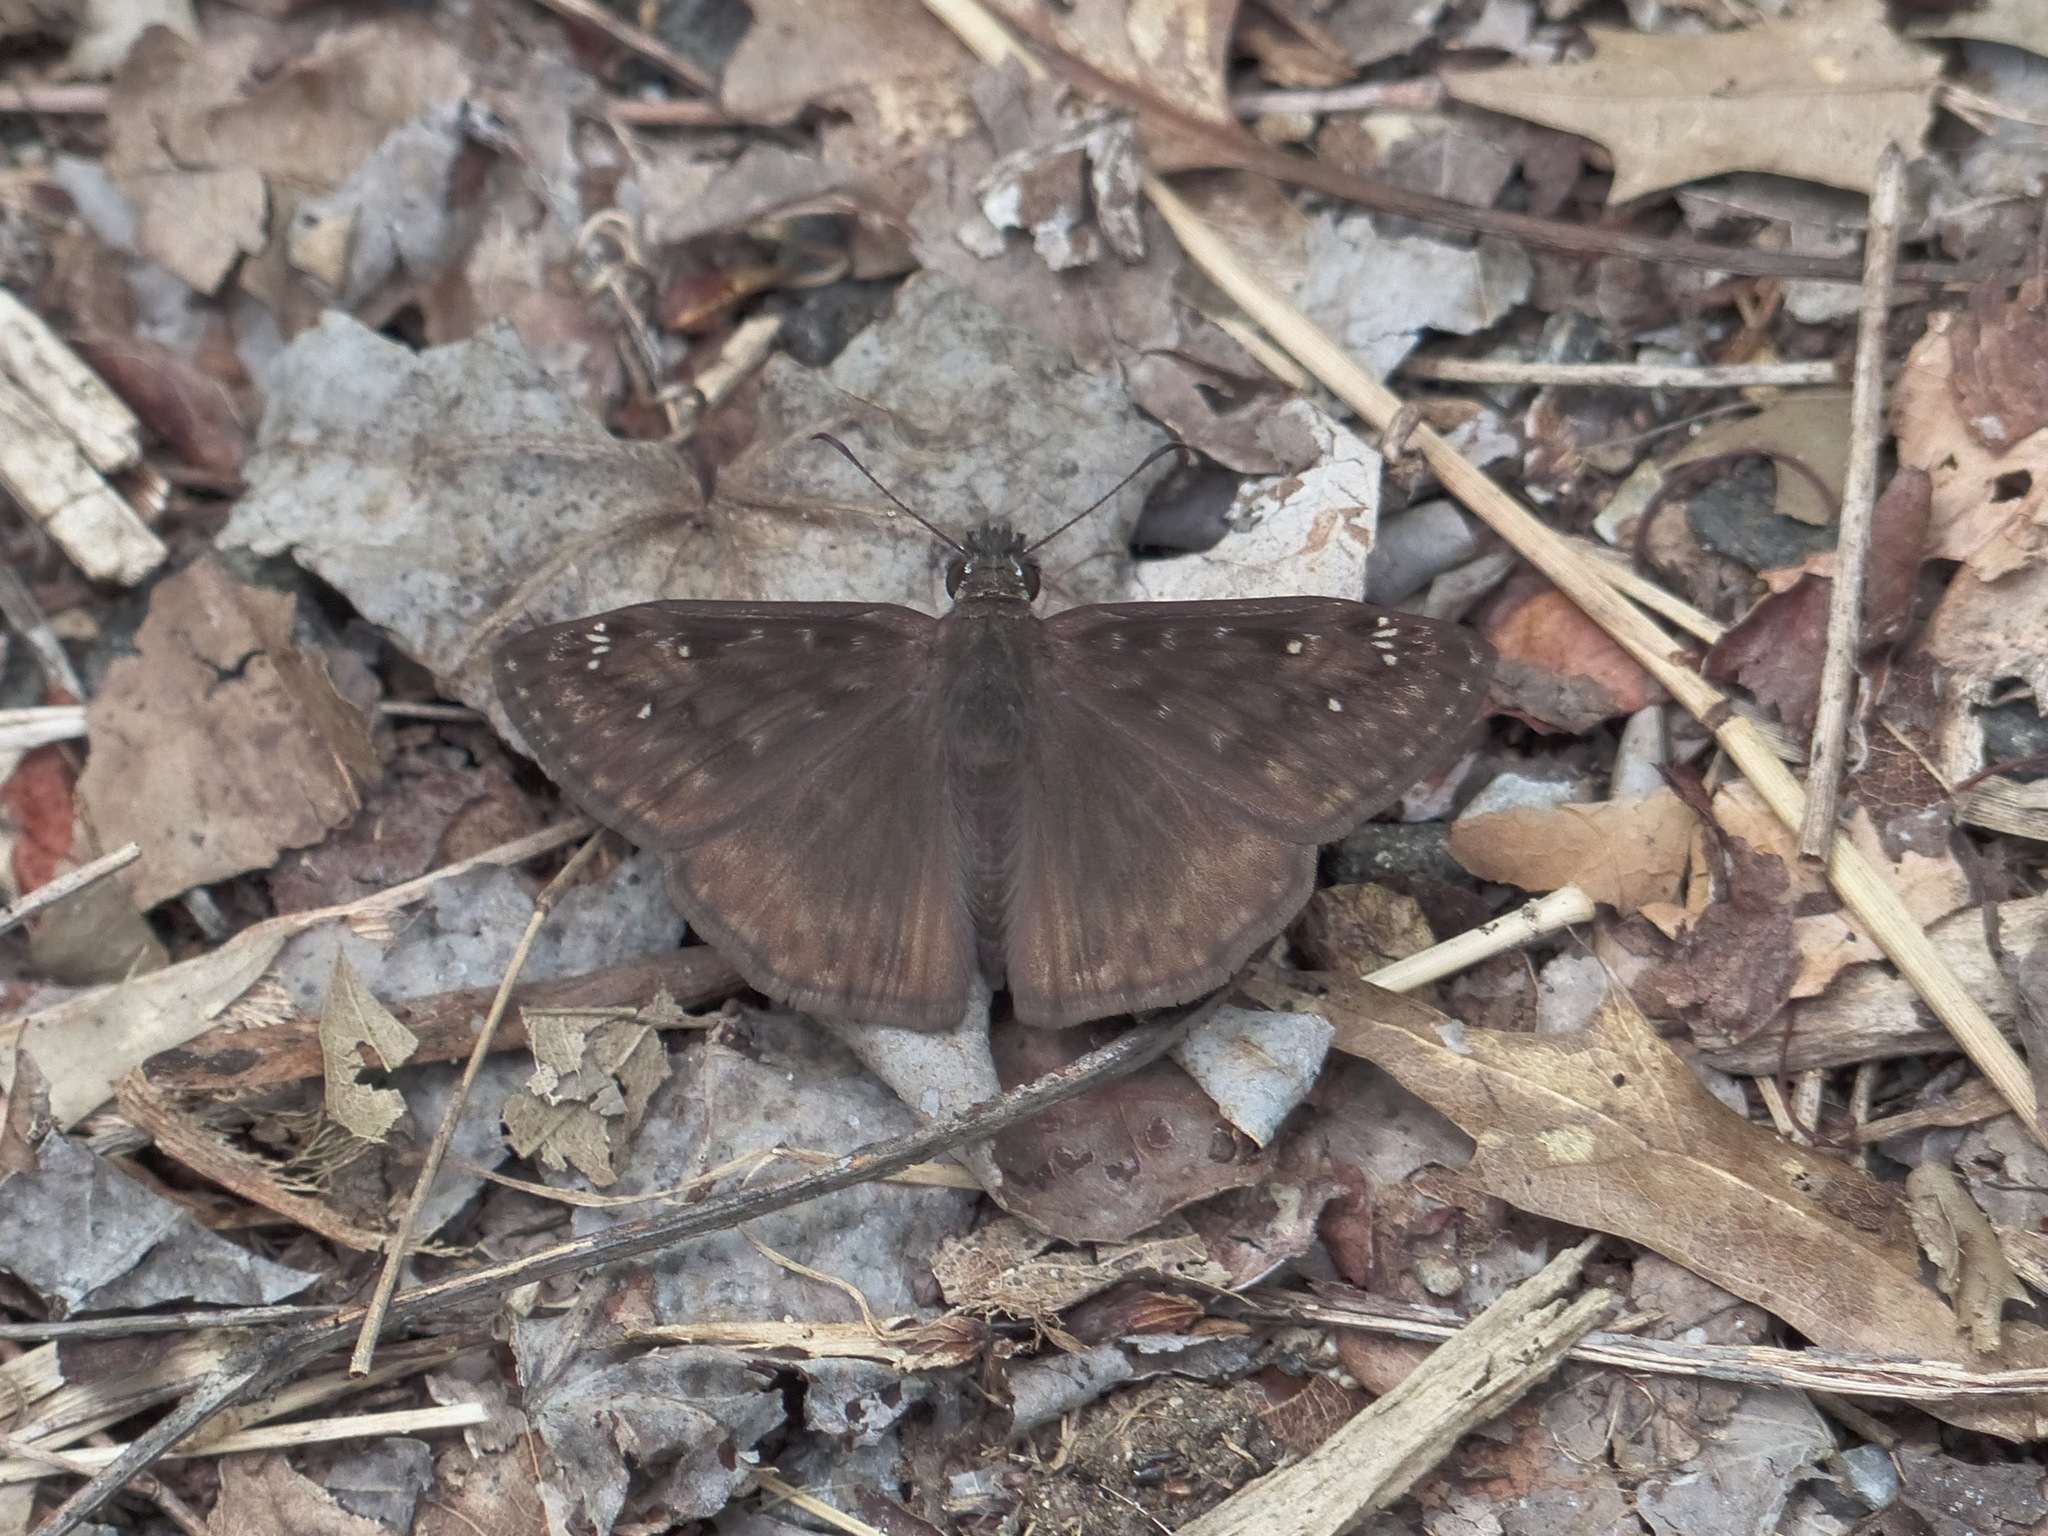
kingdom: Animalia
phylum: Arthropoda
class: Insecta
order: Lepidoptera
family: Hesperiidae
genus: Erynnis
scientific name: Erynnis horatius
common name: Horace's duskywing
